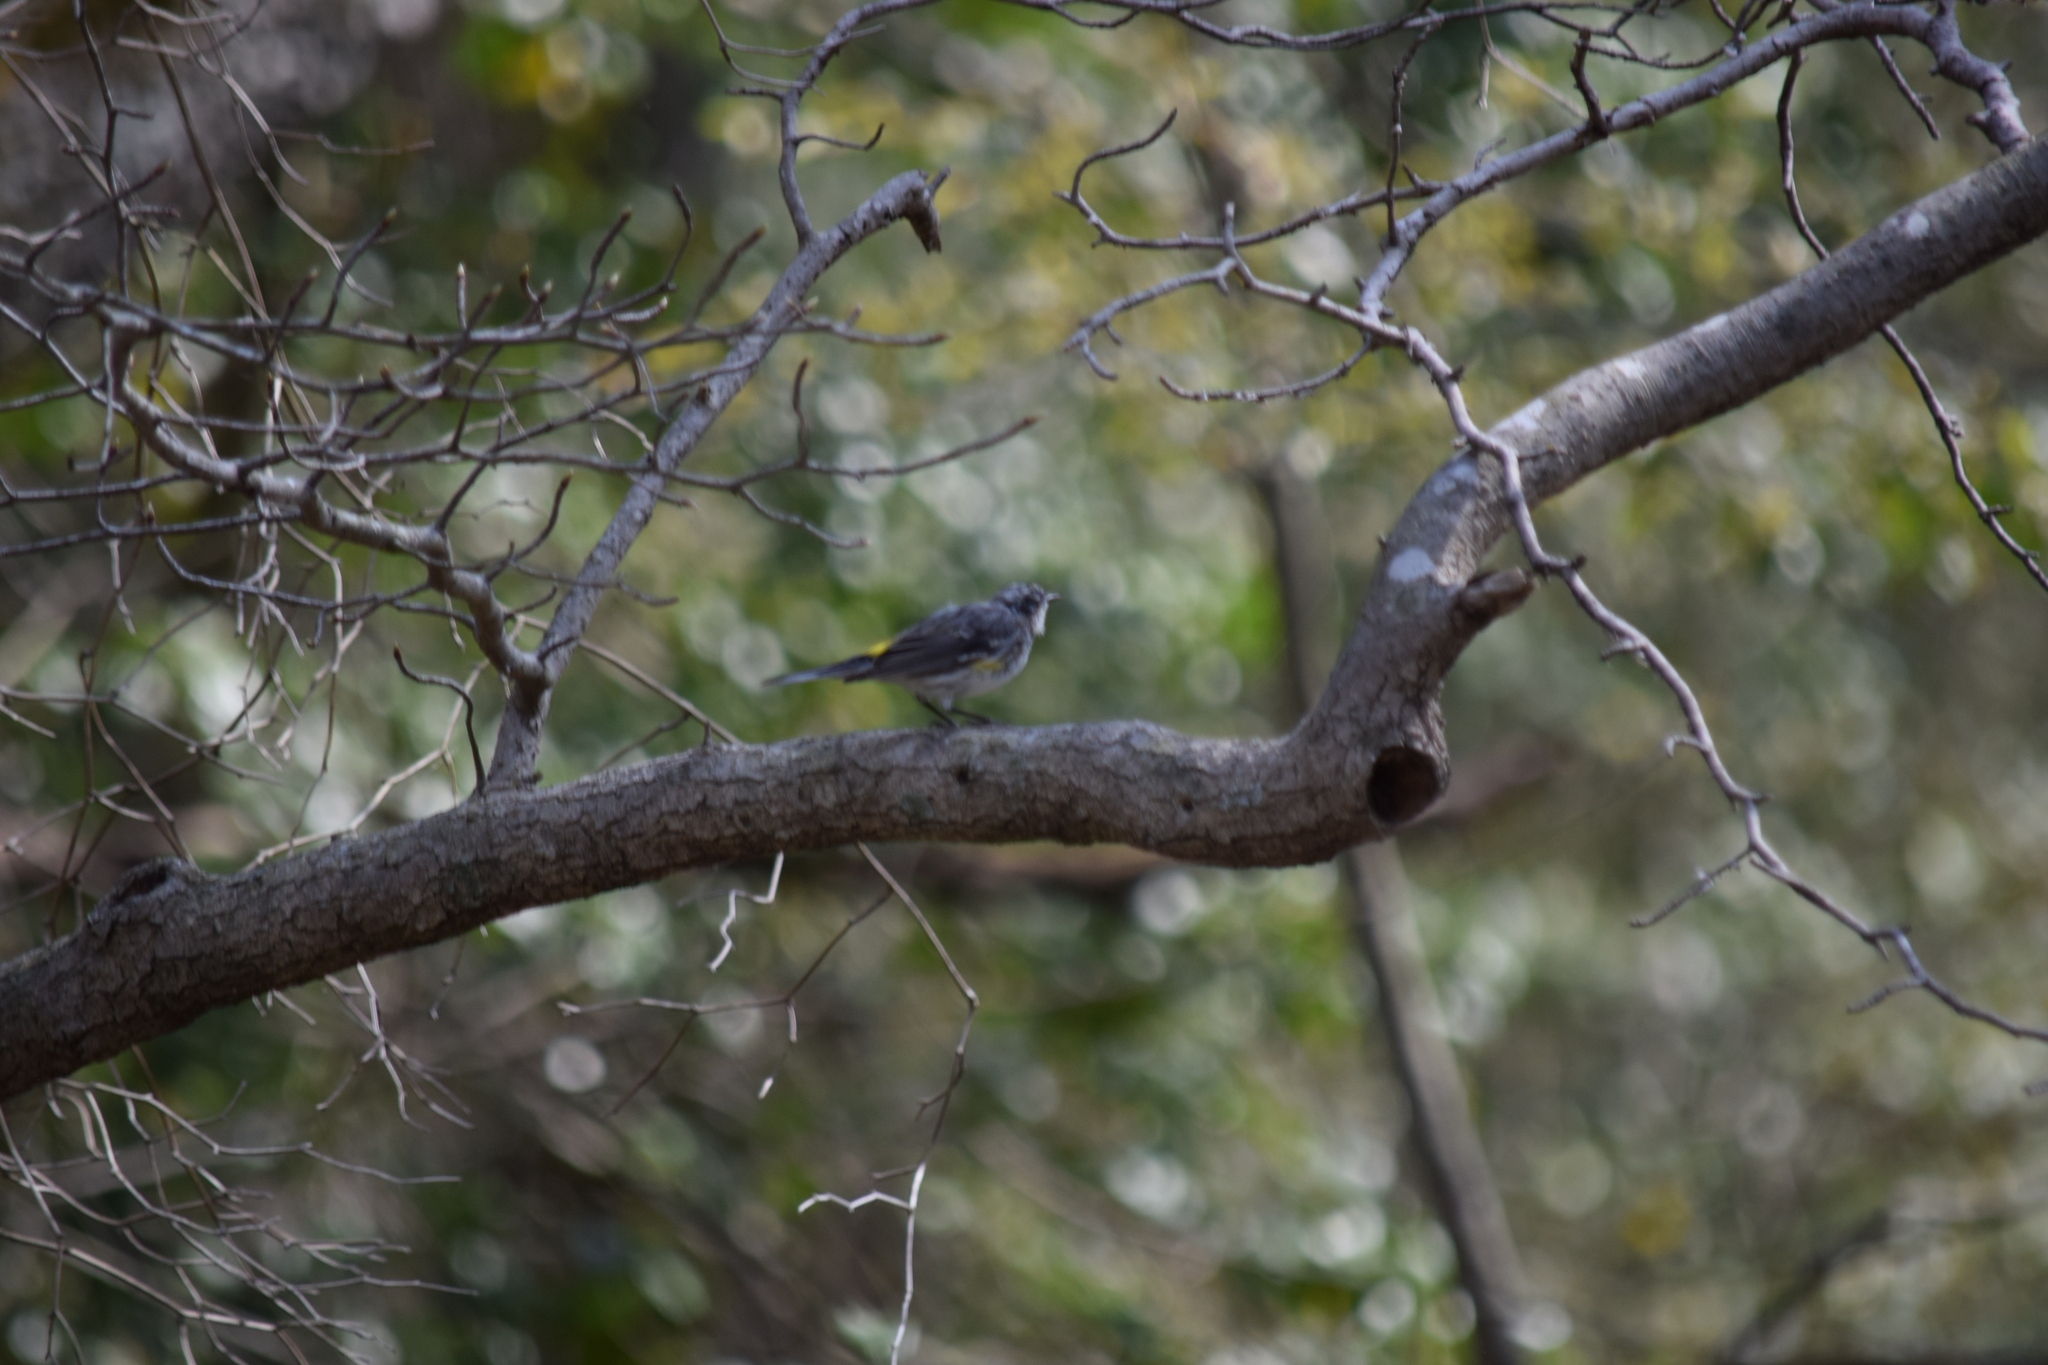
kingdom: Animalia
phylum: Chordata
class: Aves
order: Passeriformes
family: Parulidae
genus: Setophaga
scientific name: Setophaga coronata
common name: Myrtle warbler
